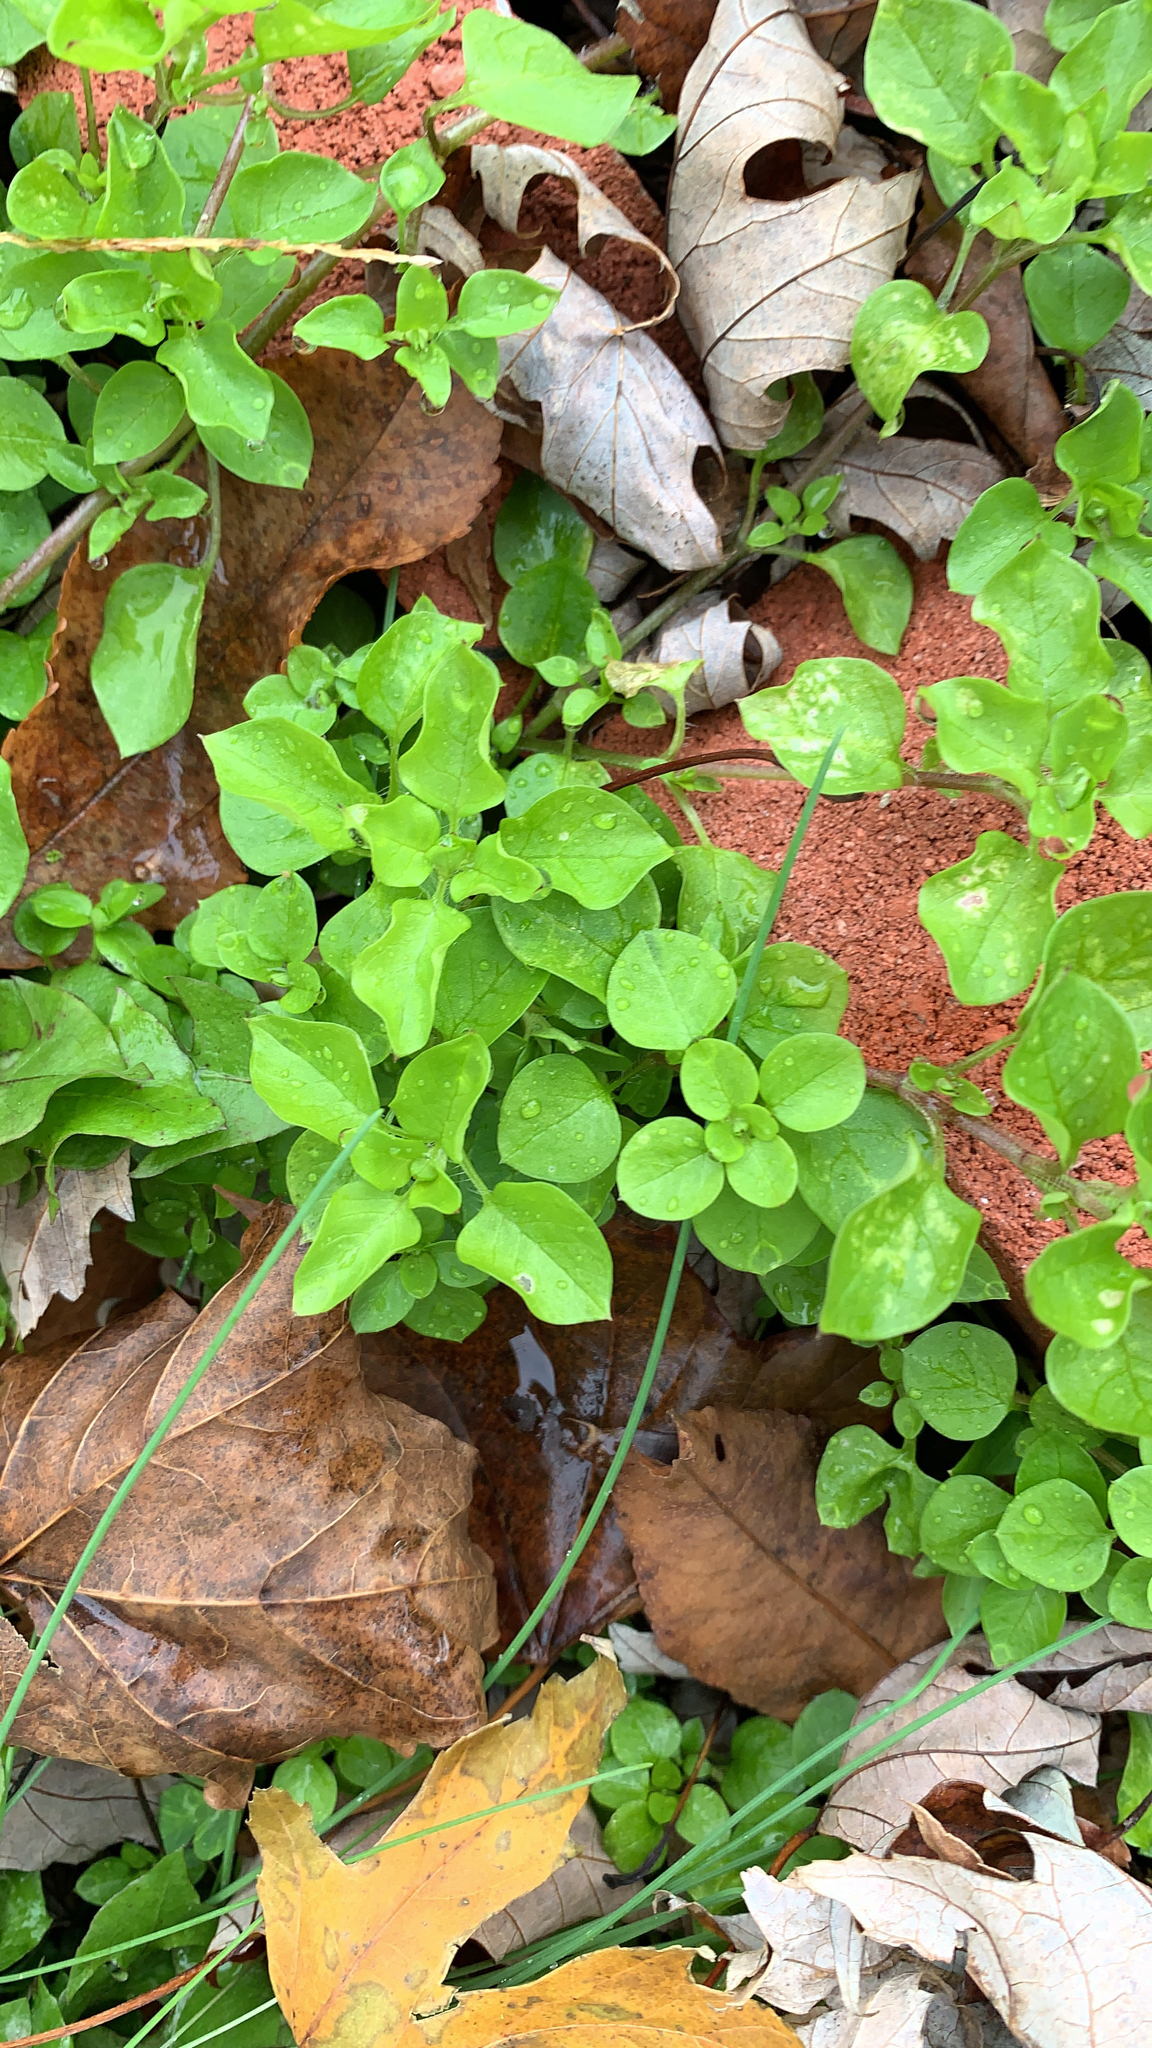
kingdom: Plantae
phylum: Tracheophyta
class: Magnoliopsida
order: Caryophyllales
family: Caryophyllaceae
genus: Stellaria
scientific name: Stellaria media
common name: Common chickweed
